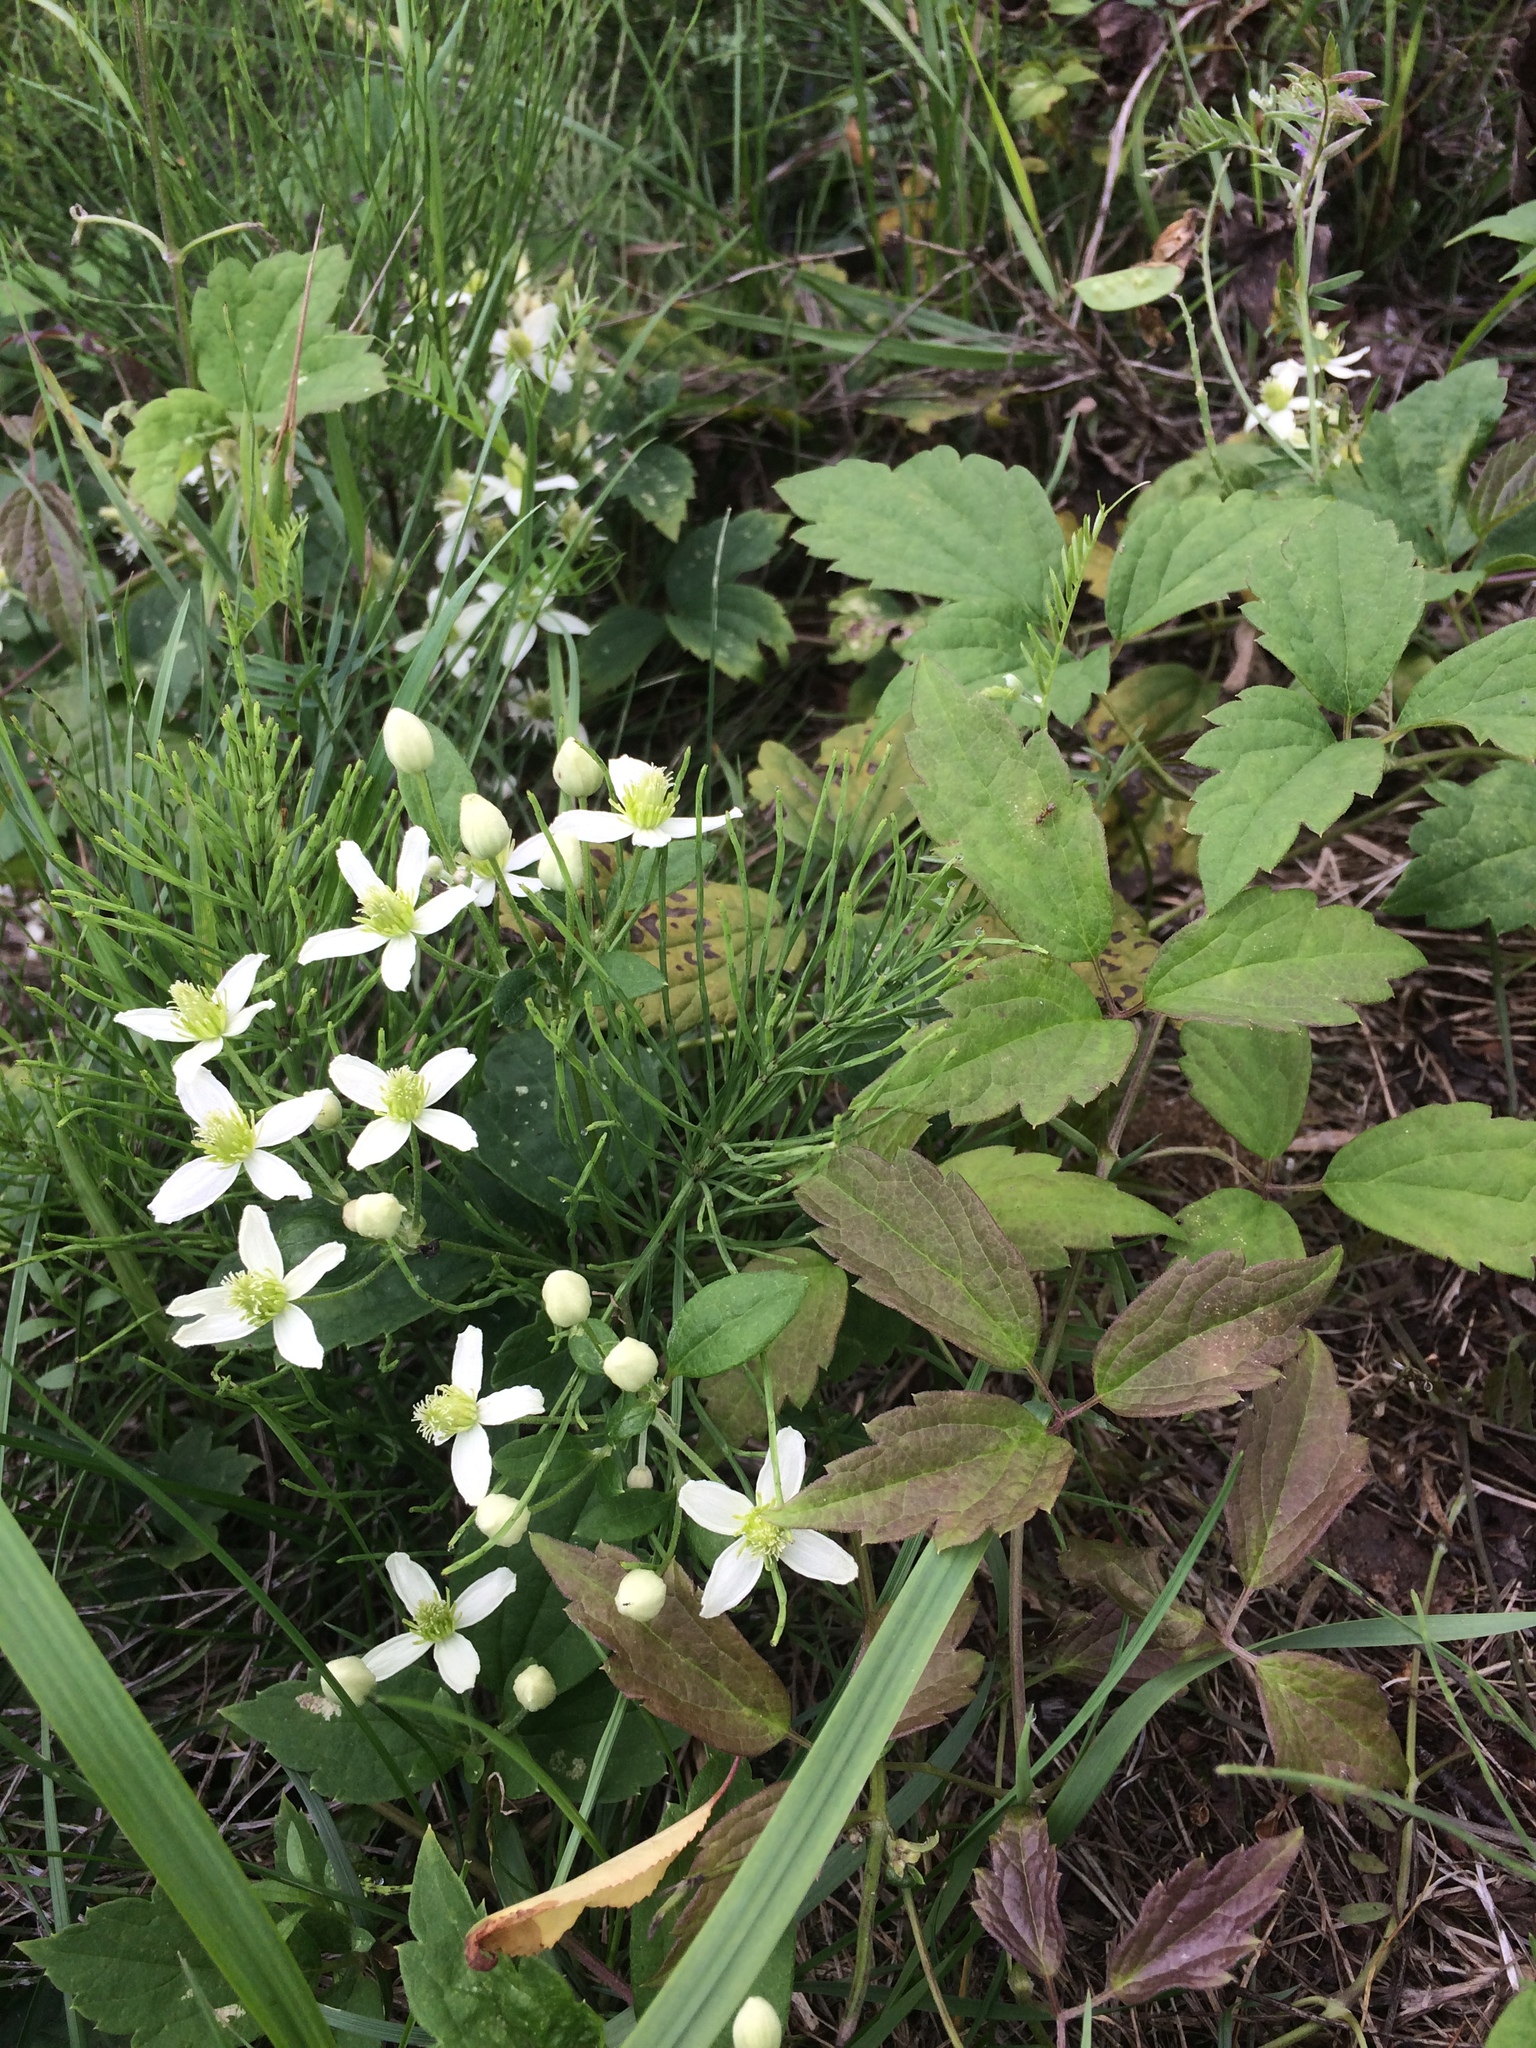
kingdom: Plantae
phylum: Tracheophyta
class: Magnoliopsida
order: Ranunculales
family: Ranunculaceae
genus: Clematis
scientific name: Clematis virginiana
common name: Virgin's-bower
